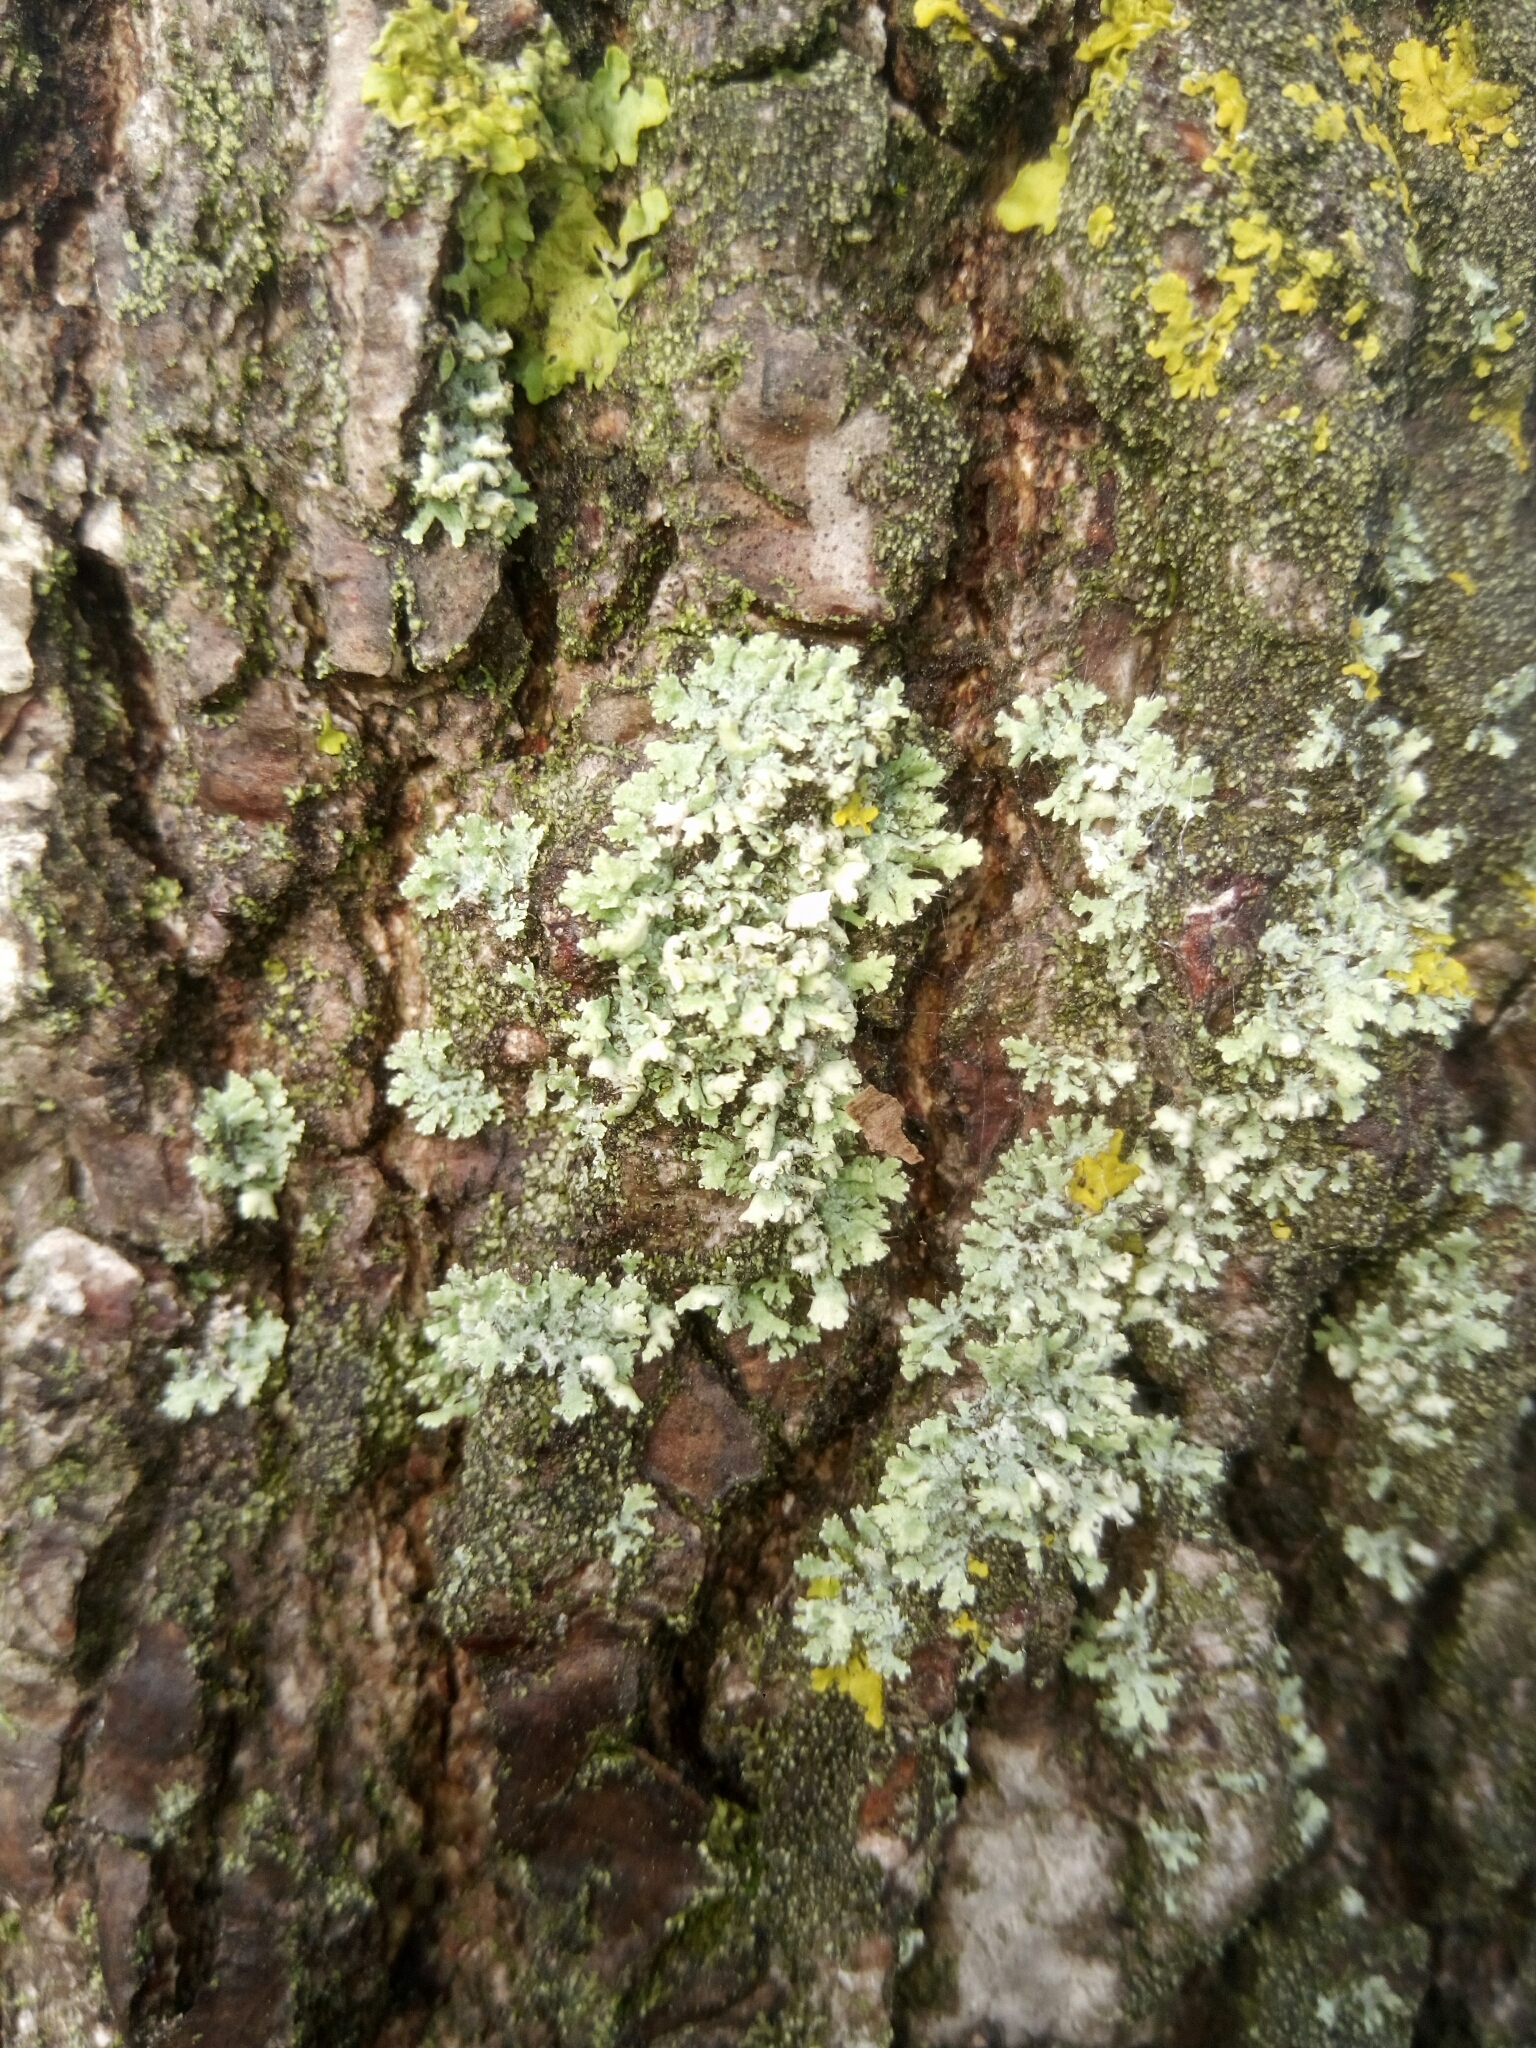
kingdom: Fungi
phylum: Ascomycota
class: Lecanoromycetes
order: Caliciales
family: Physciaceae
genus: Physcia
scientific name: Physcia adscendens
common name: Hooded rosette lichen
